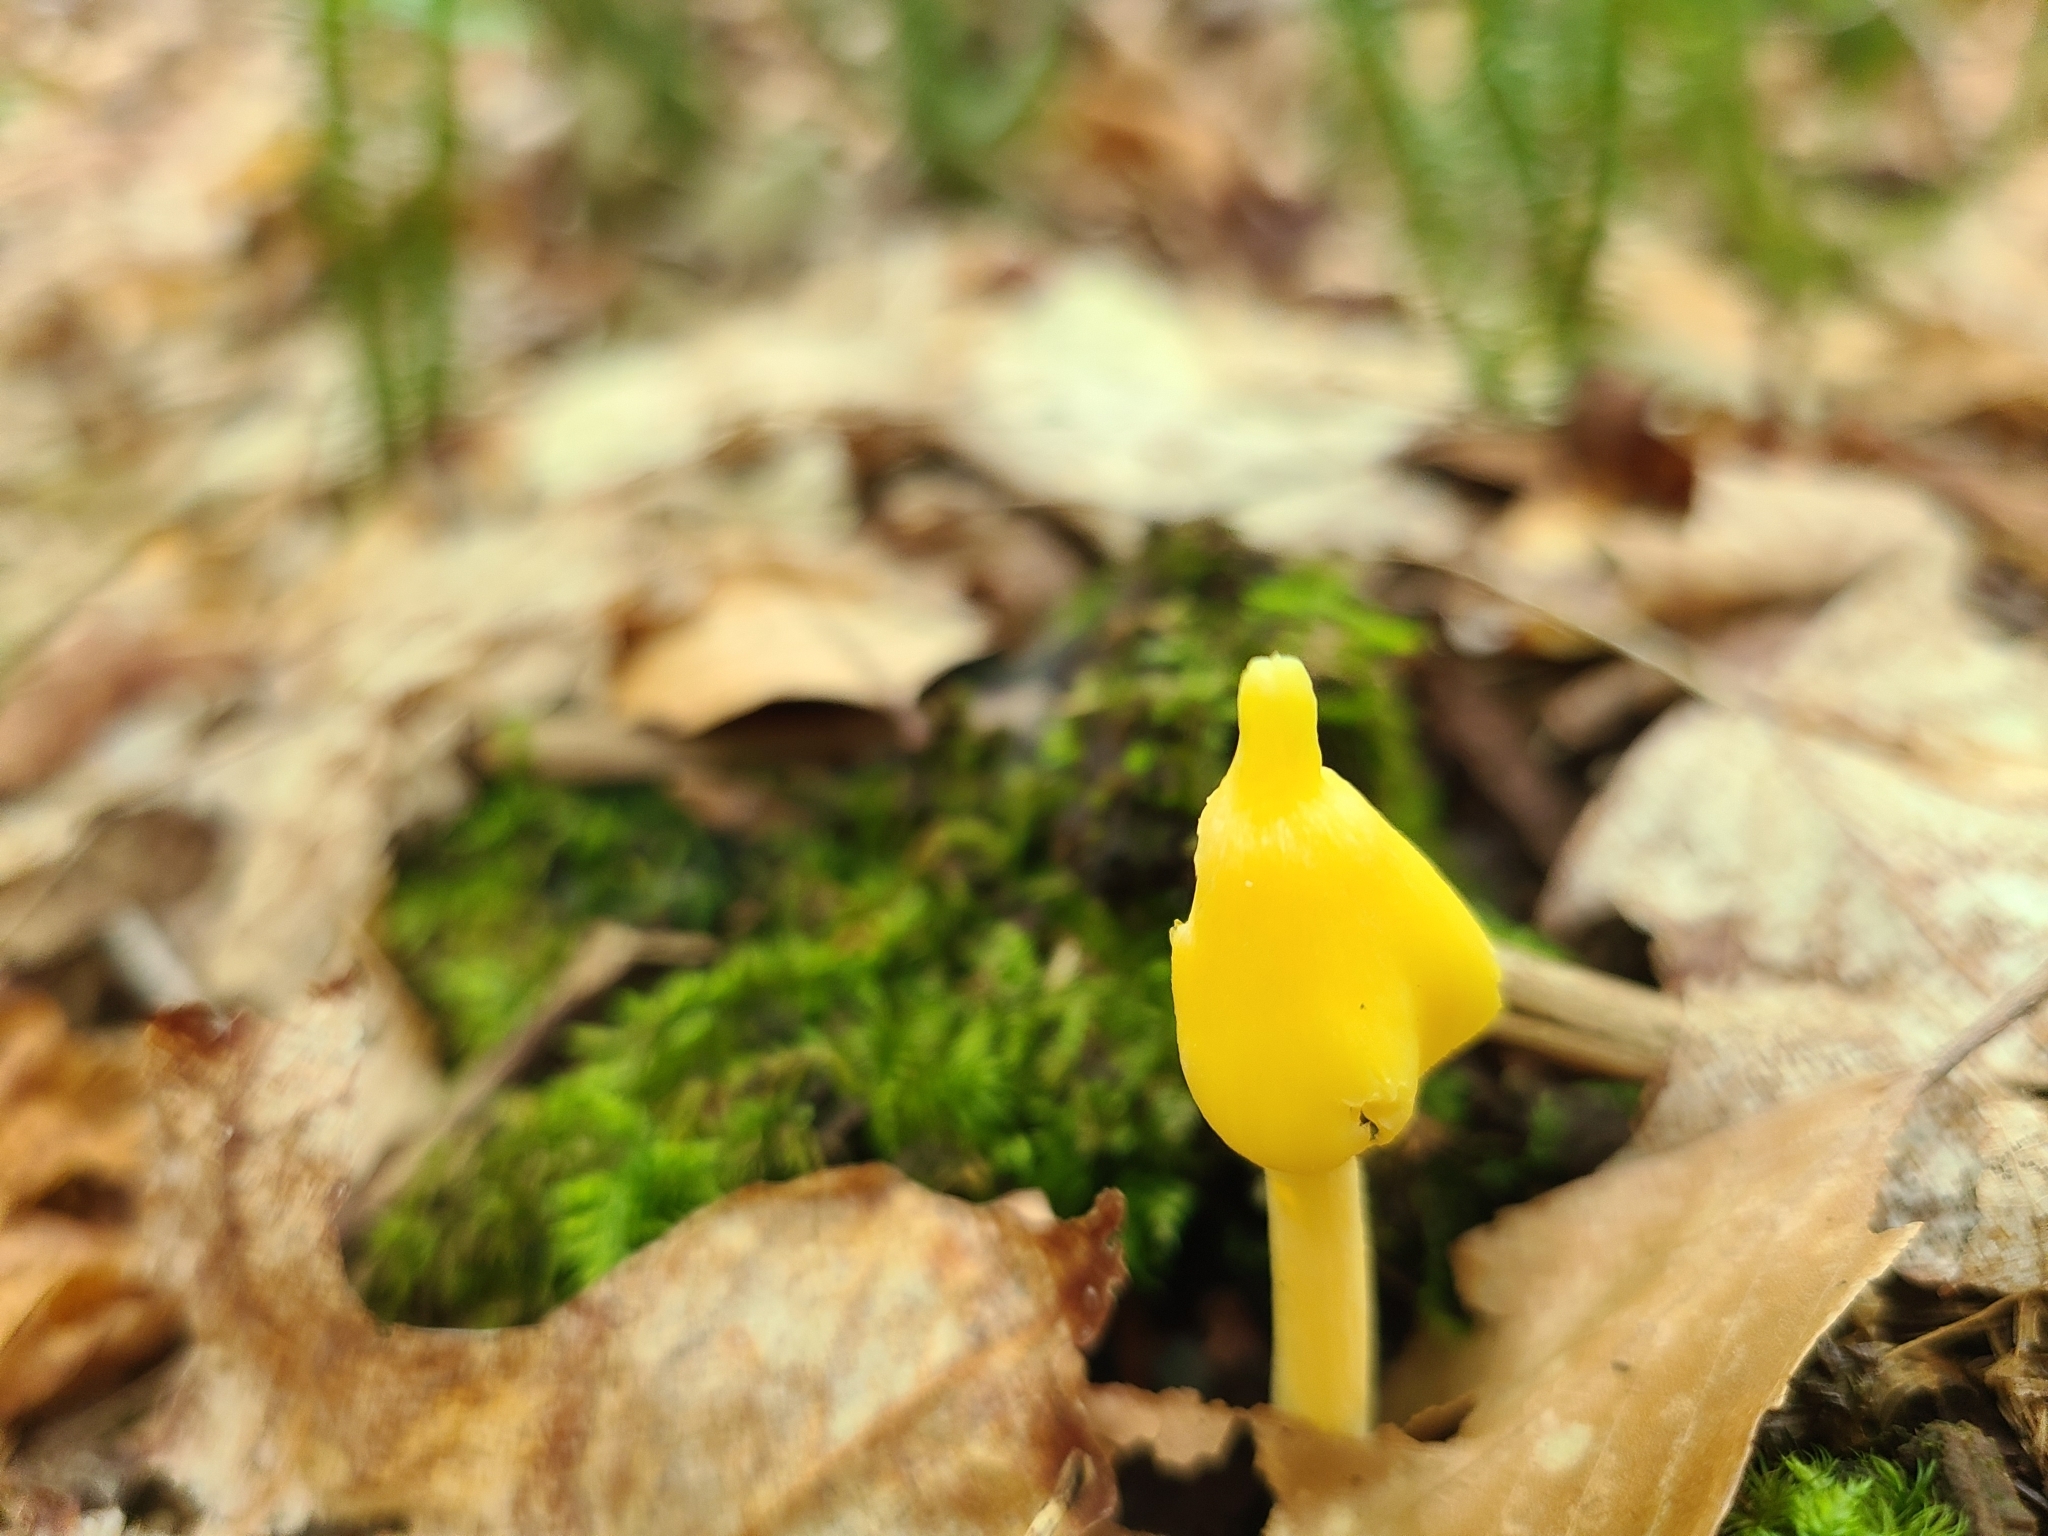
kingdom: Fungi
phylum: Basidiomycota
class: Agaricomycetes
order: Agaricales
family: Entolomataceae
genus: Entoloma
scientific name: Entoloma murrayi
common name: Yellow unicorn entoloma
